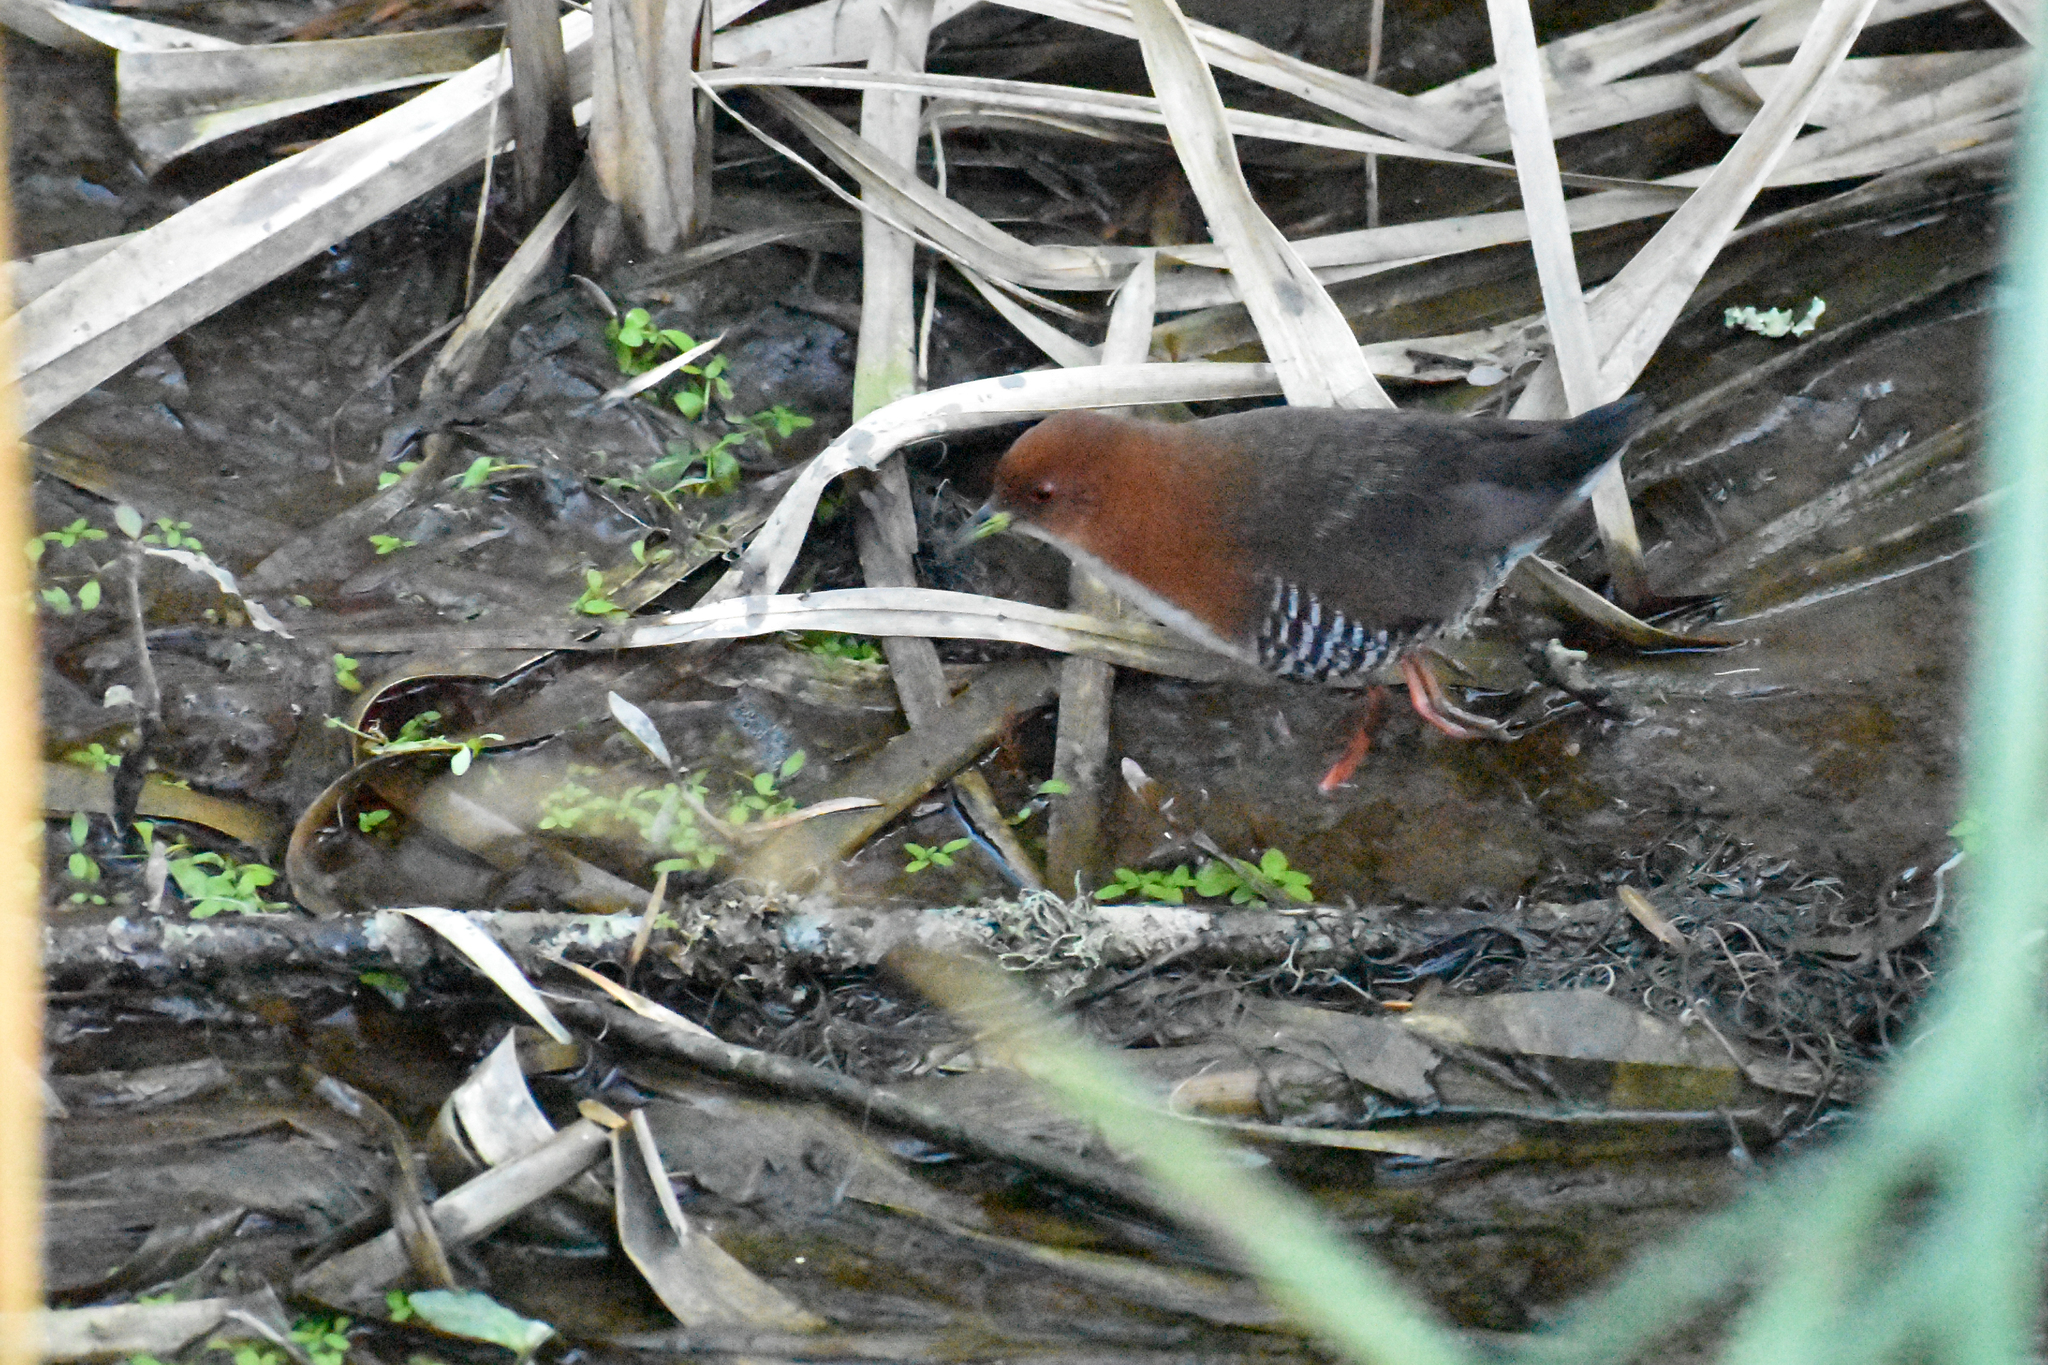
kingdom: Animalia
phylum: Chordata
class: Aves
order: Gruiformes
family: Rallidae
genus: Laterallus
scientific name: Laterallus leucopyrrhus
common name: Red-and-white crake
